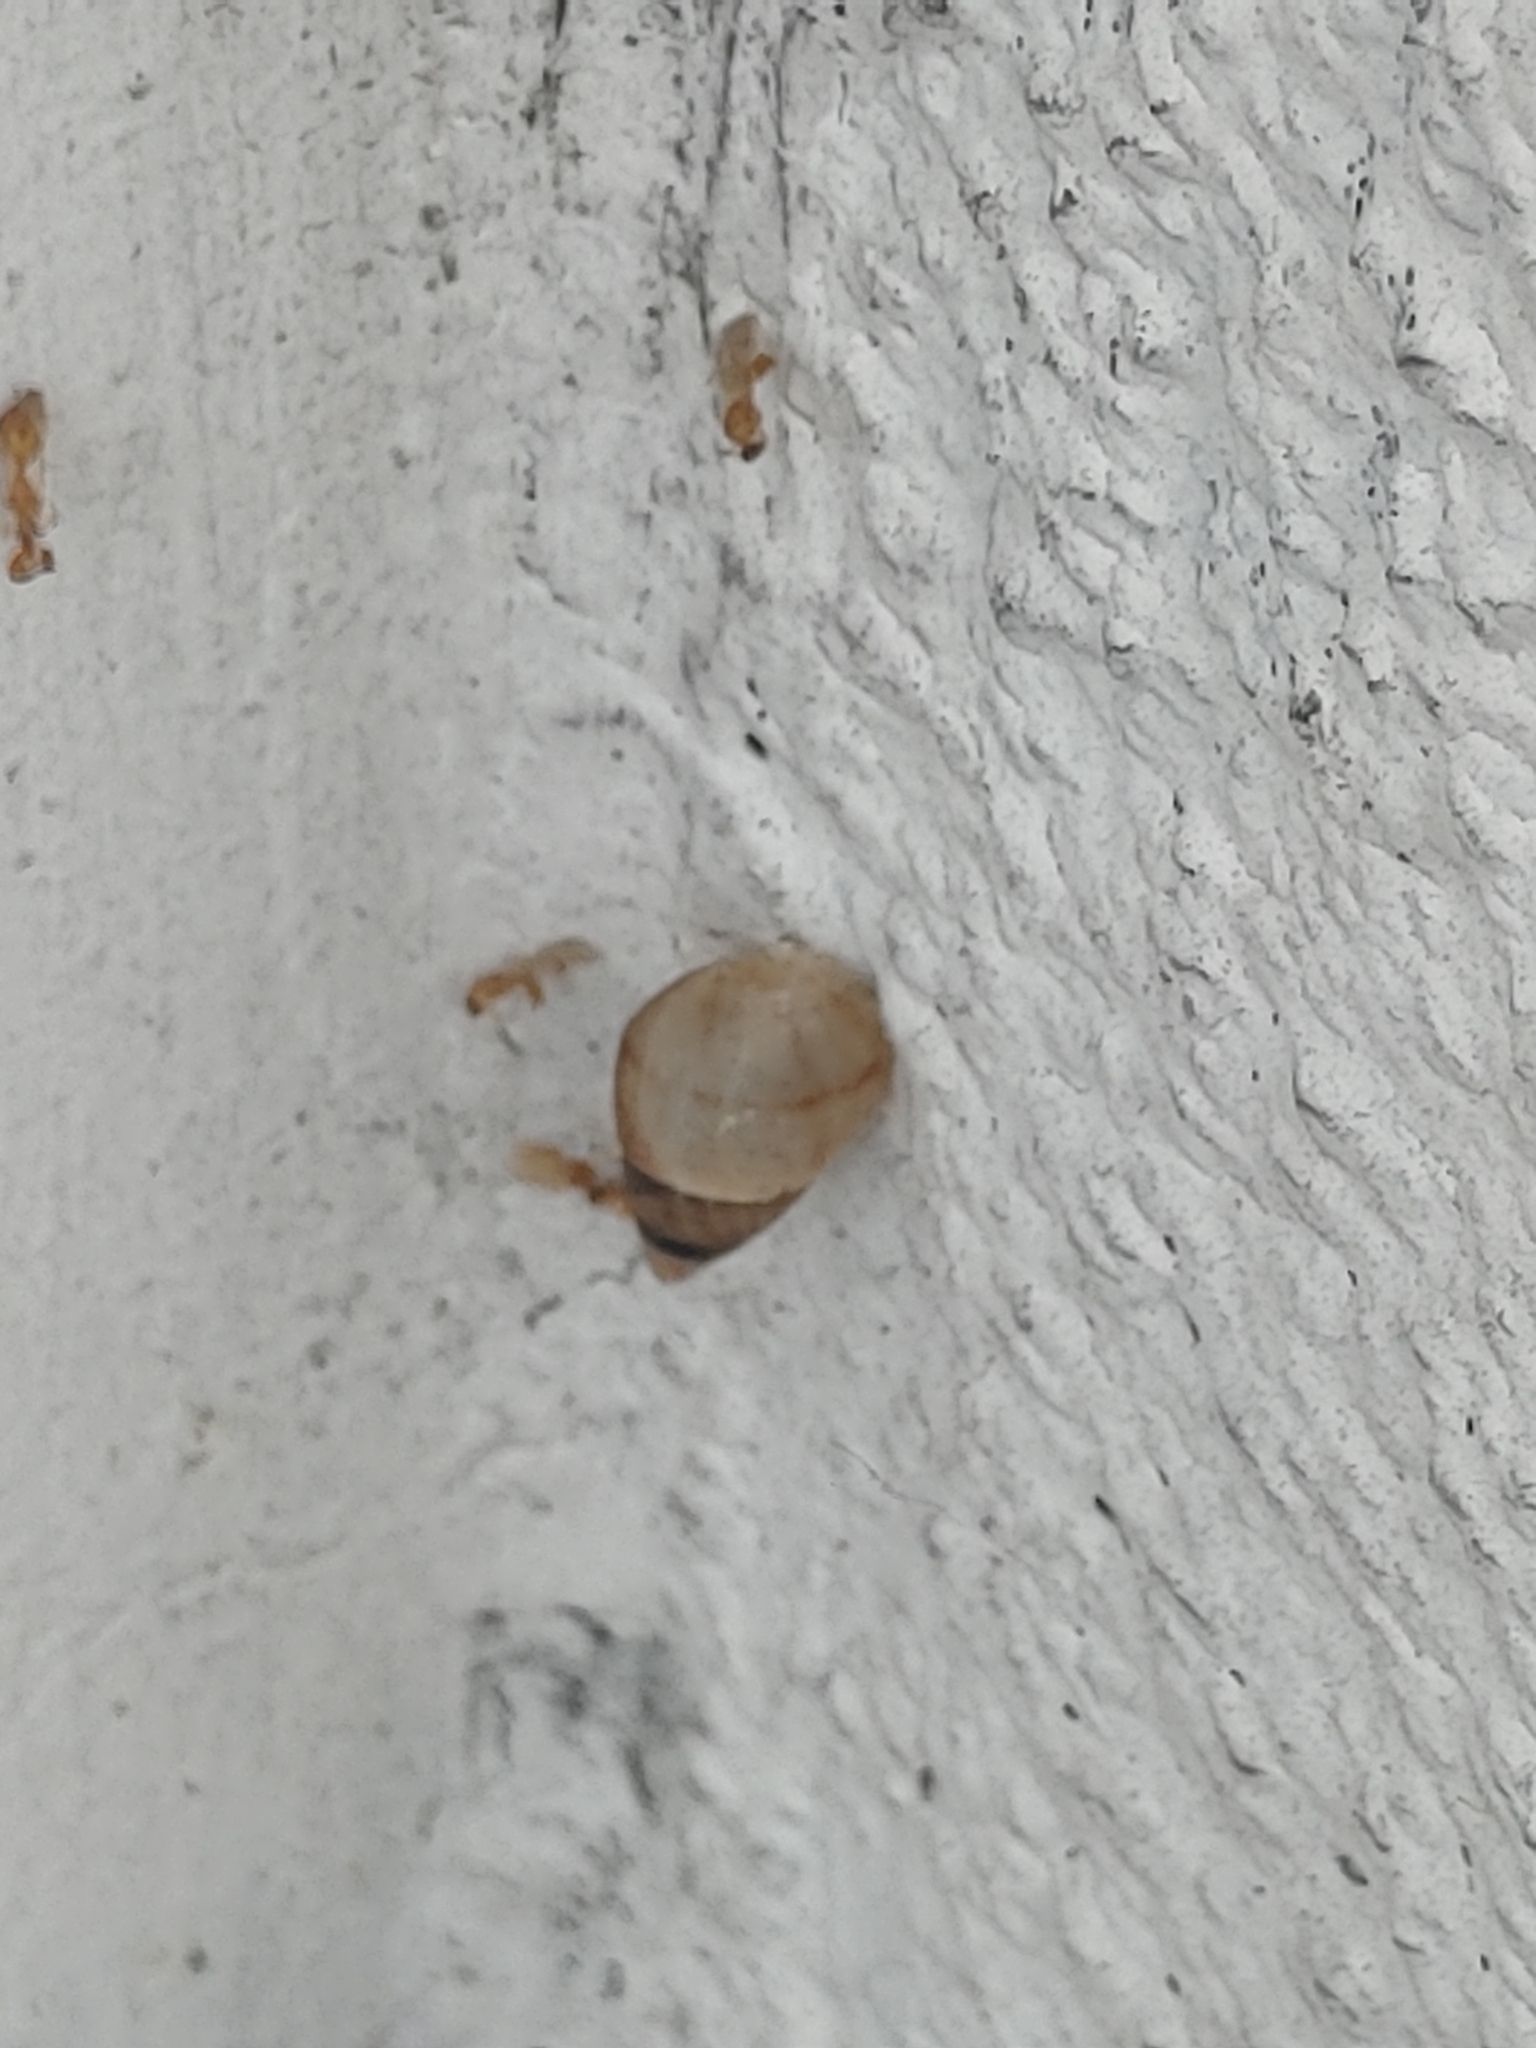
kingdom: Animalia
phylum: Mollusca
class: Gastropoda
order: Stylommatophora
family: Bulimulidae
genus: Bulimulus
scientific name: Bulimulus guadalupensis
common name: West indian bulimulus
